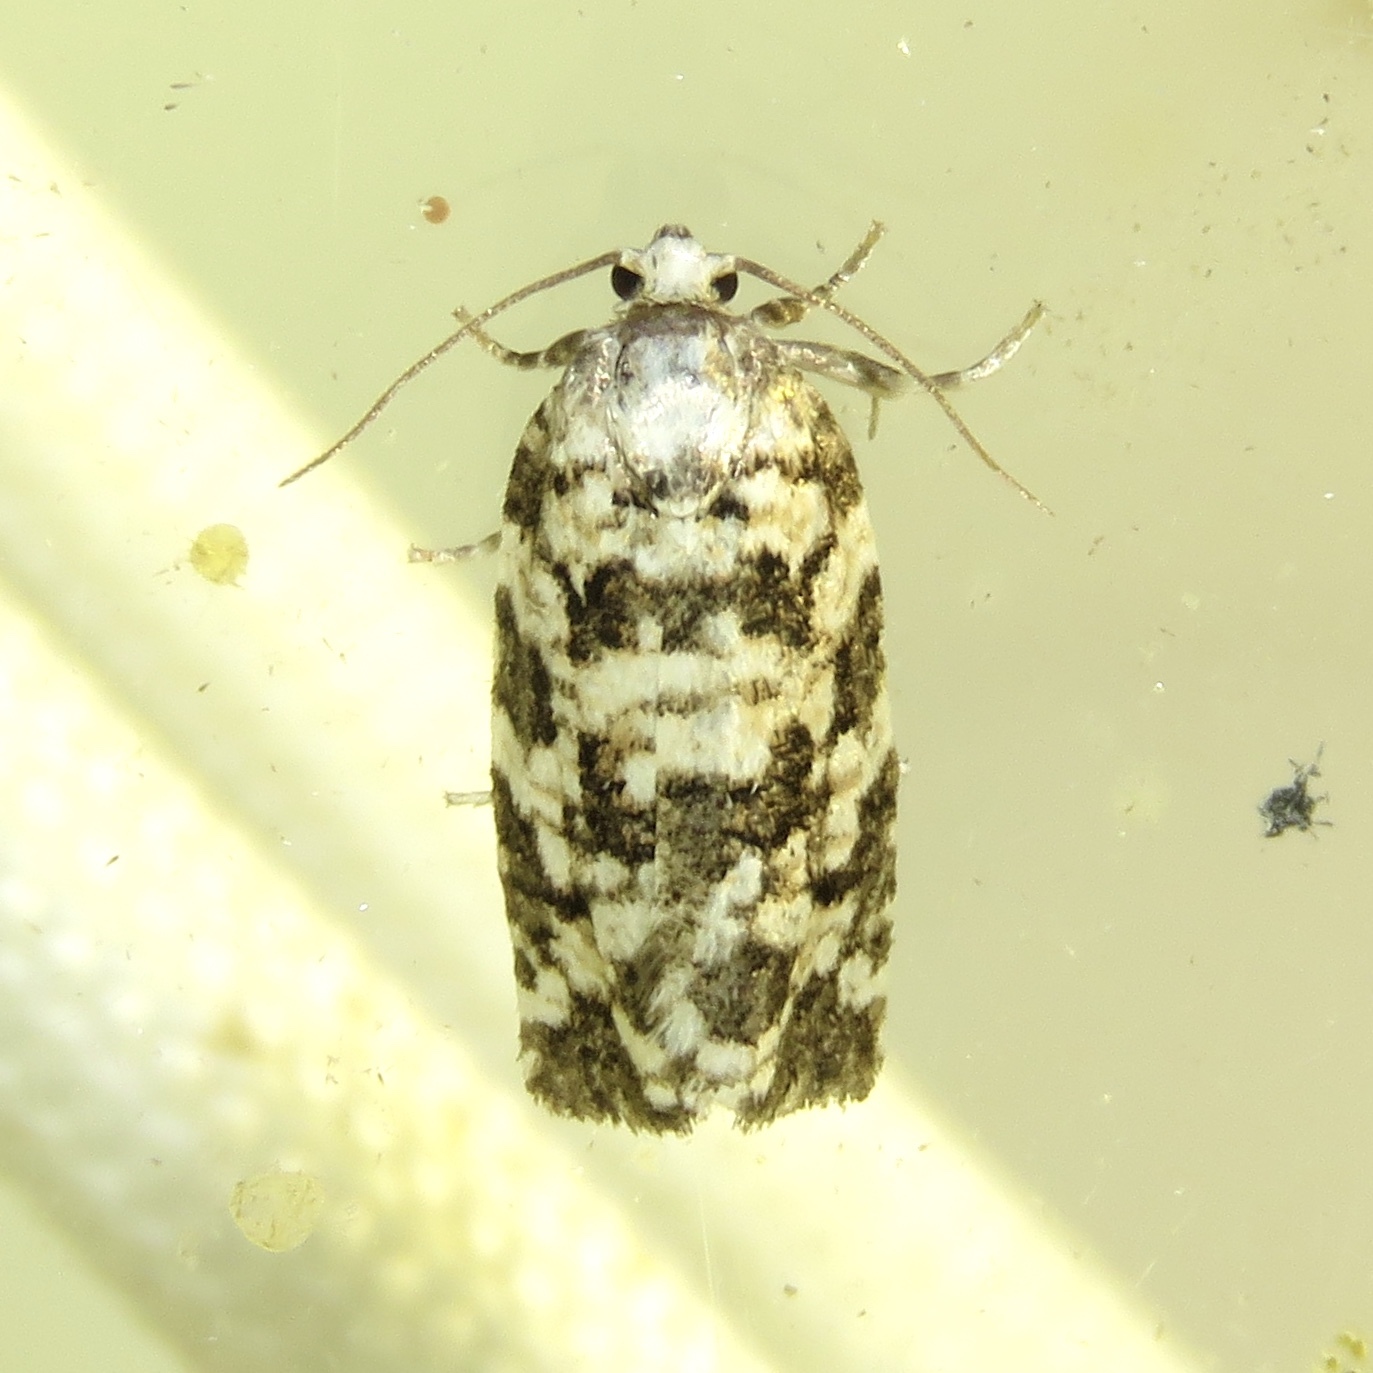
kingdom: Animalia
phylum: Arthropoda
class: Insecta
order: Lepidoptera
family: Tortricidae
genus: Archips
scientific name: Archips packardiana
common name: Spring spruce needle moth
